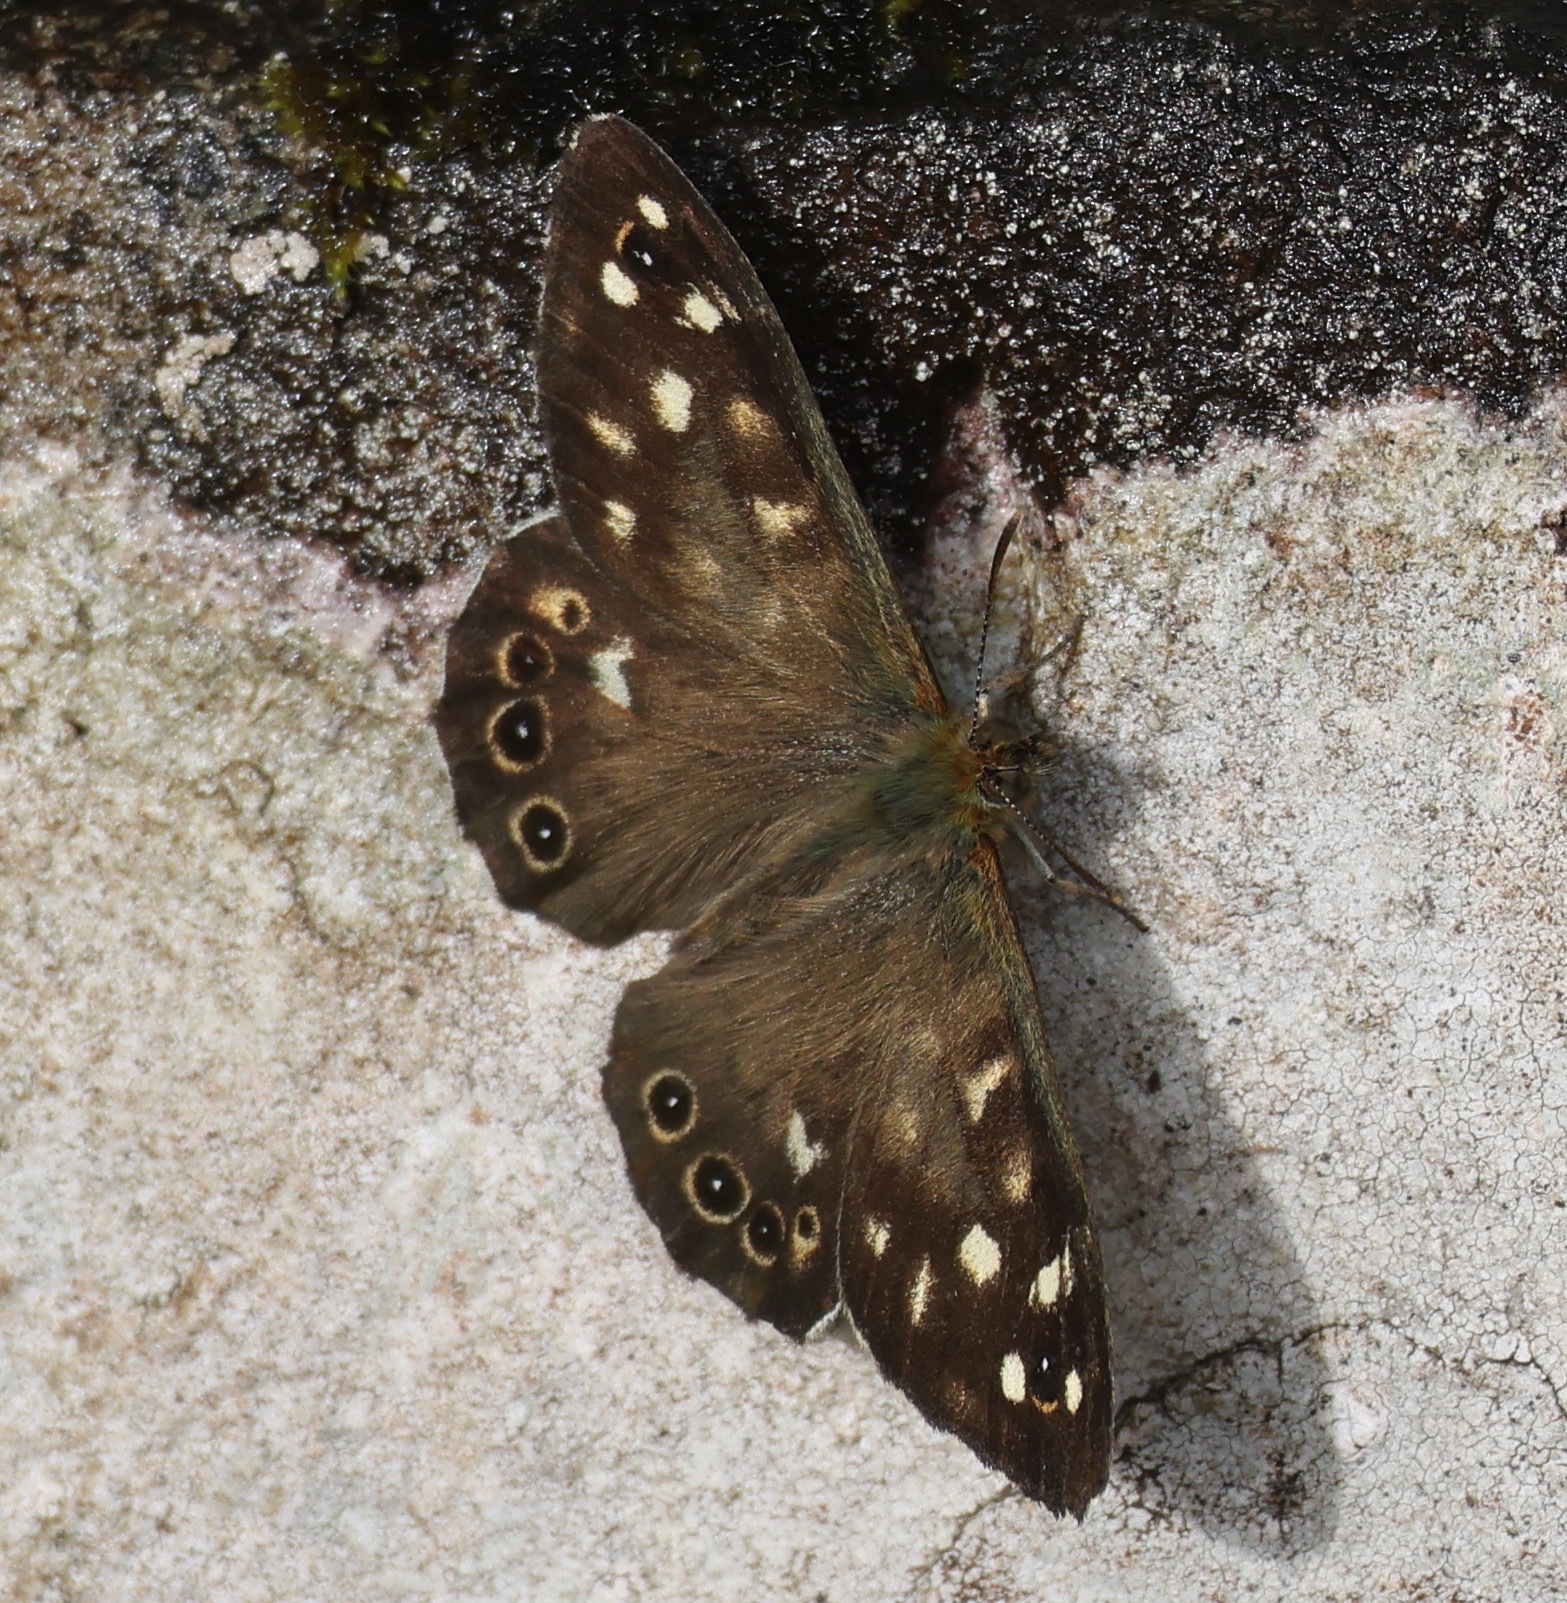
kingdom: Animalia
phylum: Arthropoda
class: Insecta
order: Lepidoptera
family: Nymphalidae
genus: Pararge
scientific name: Pararge aegeria
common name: Speckled wood
